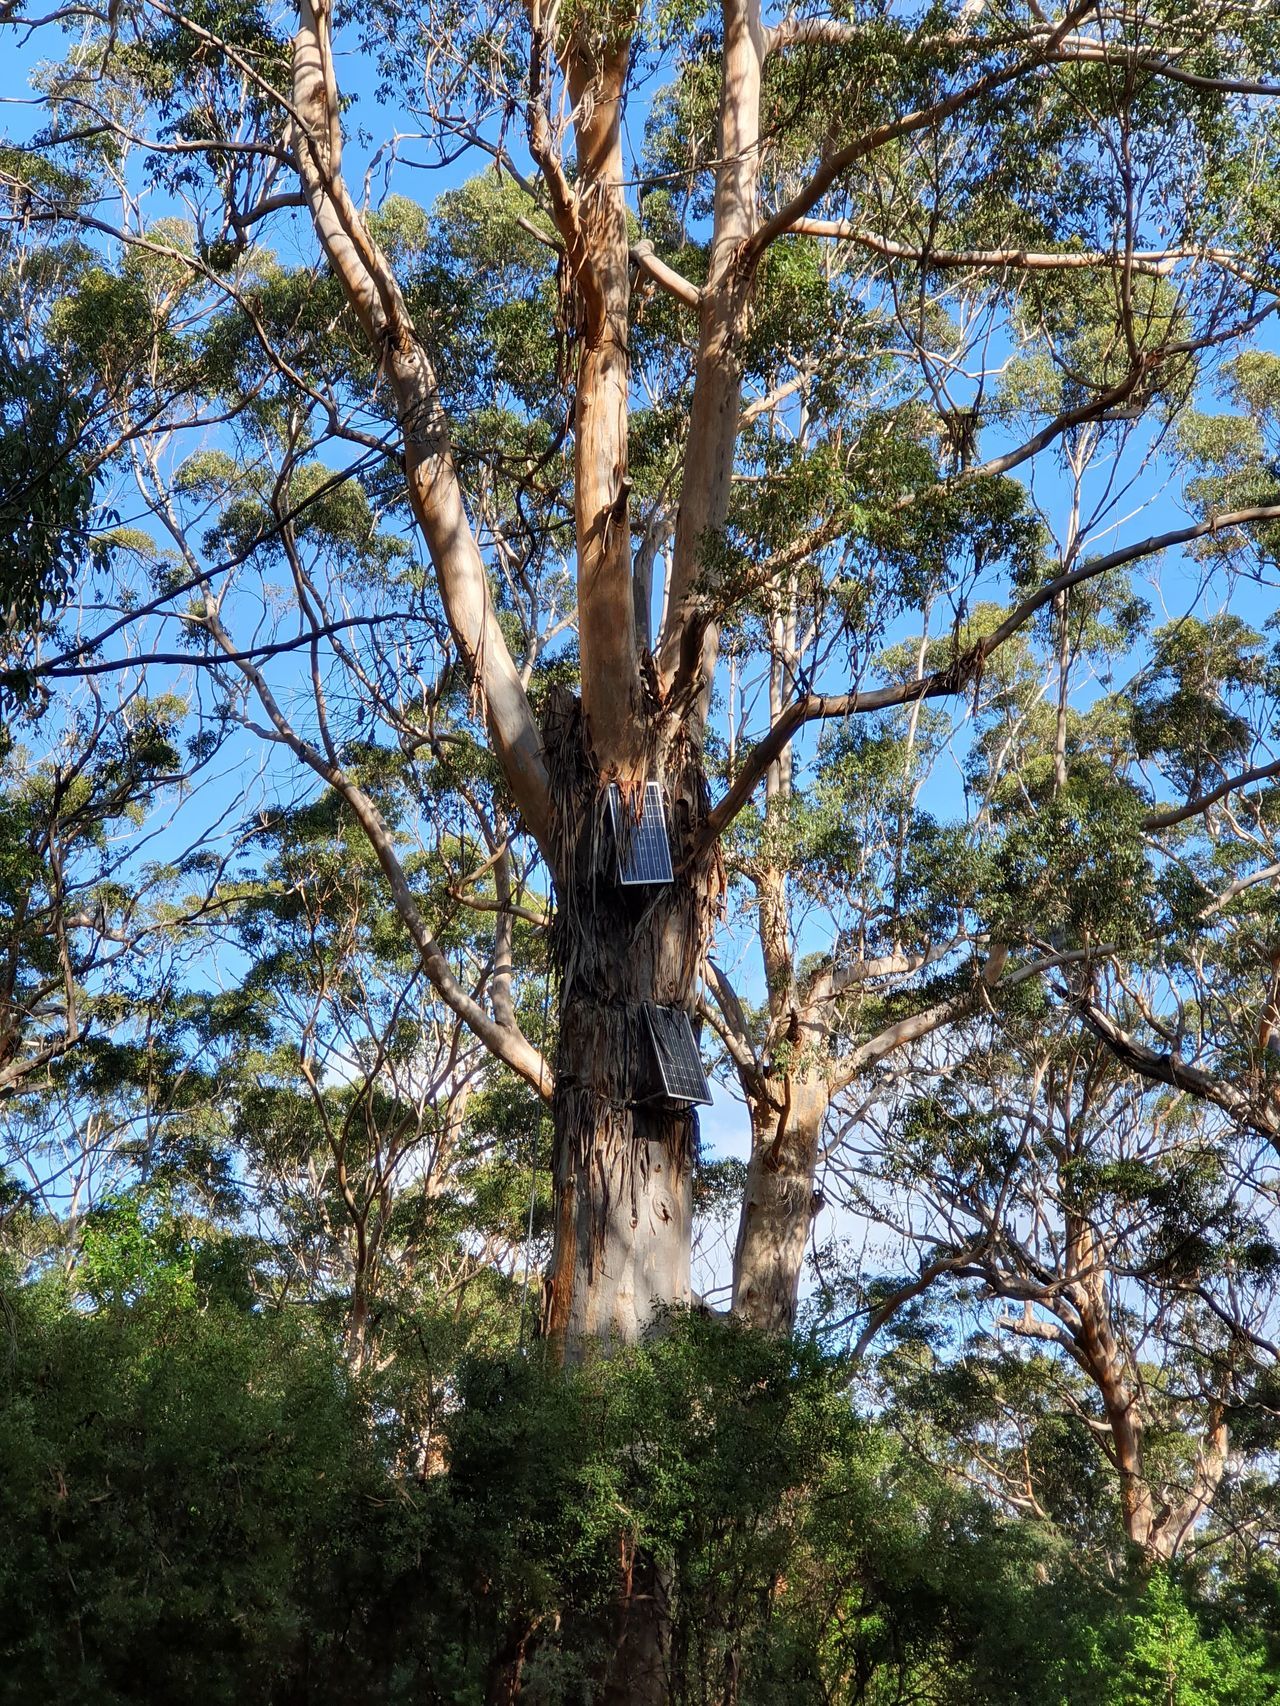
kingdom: Plantae
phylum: Tracheophyta
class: Magnoliopsida
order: Myrtales
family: Myrtaceae
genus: Eucalyptus
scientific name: Eucalyptus diversicolor
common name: Karri
